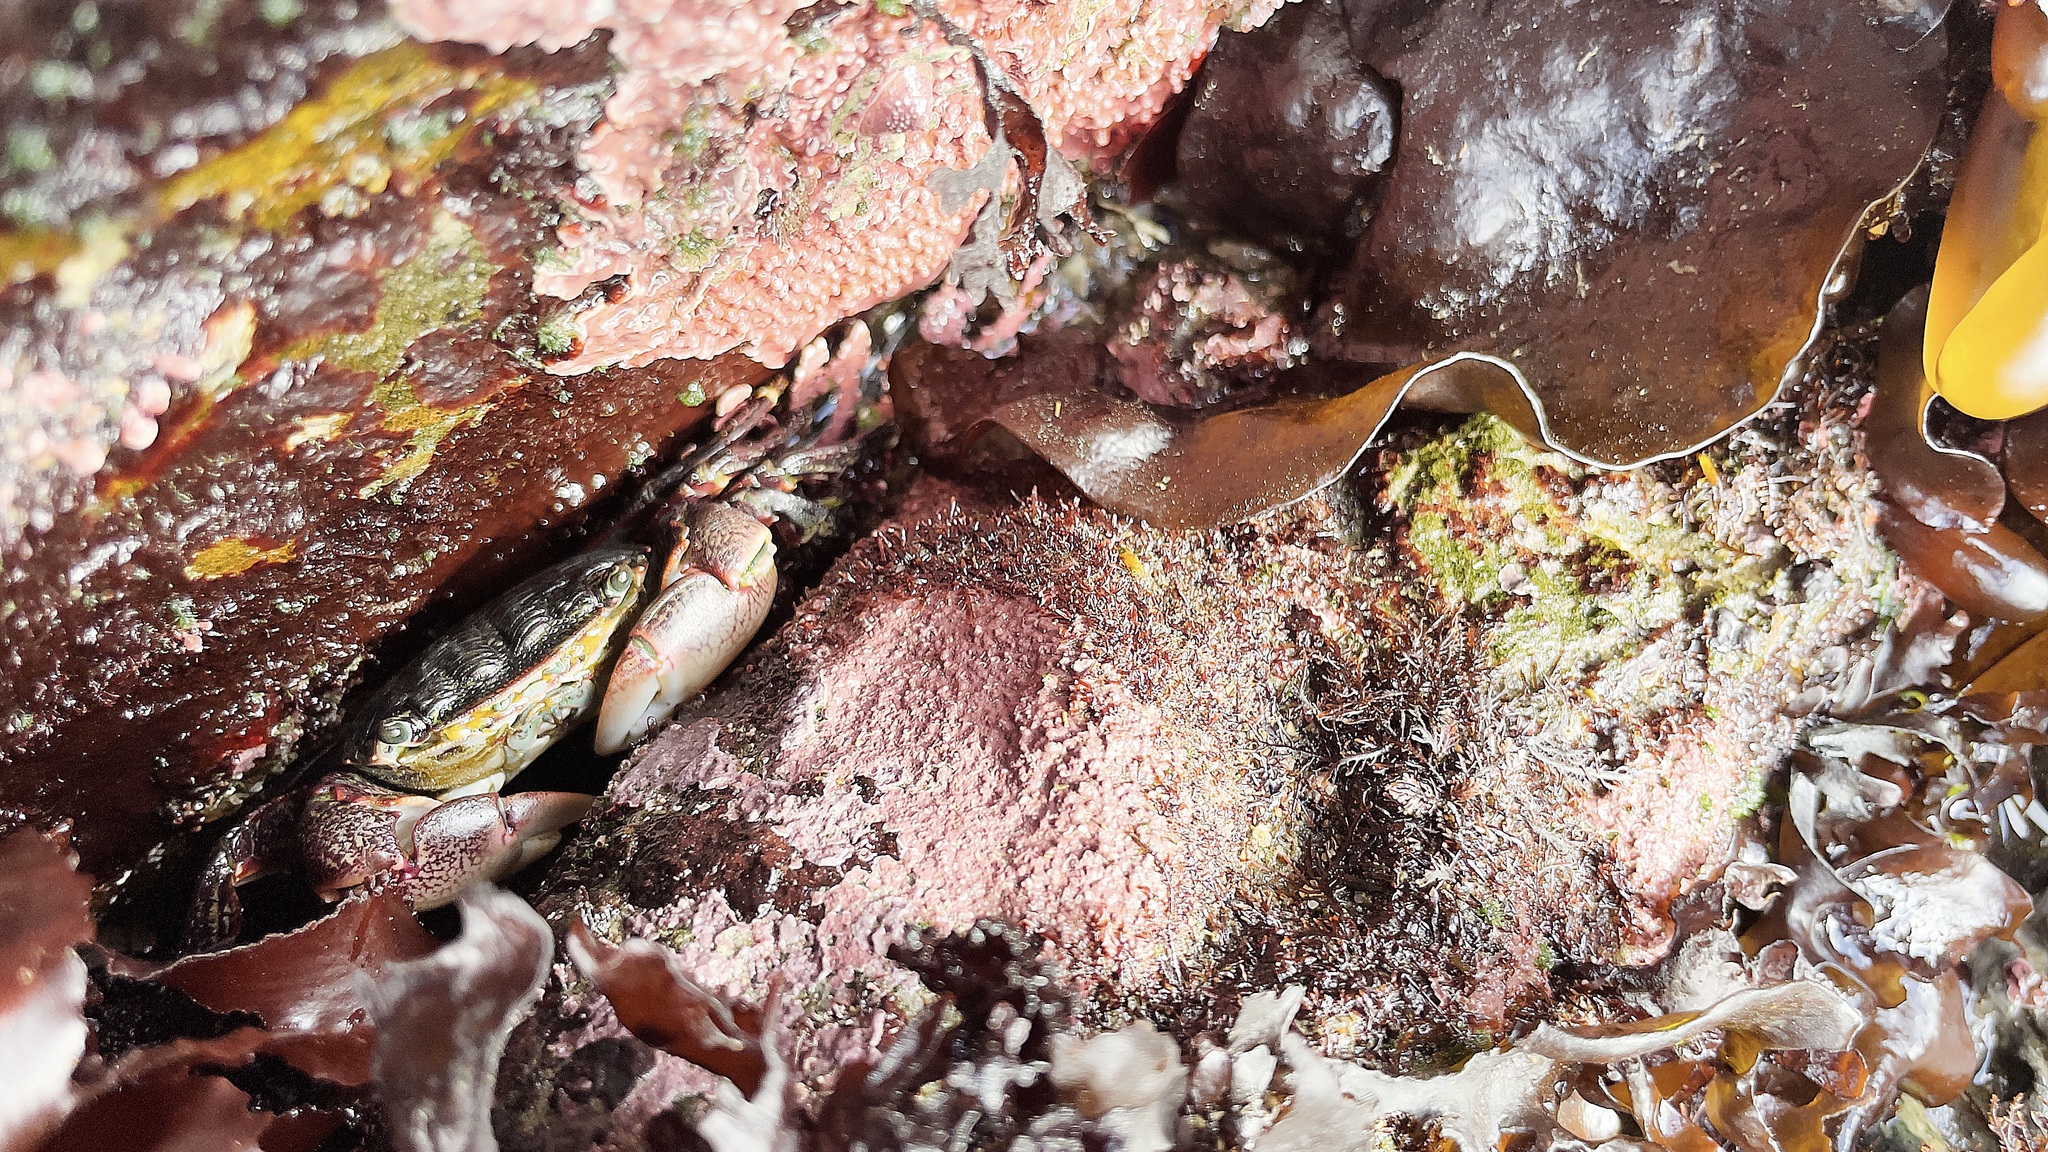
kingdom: Animalia
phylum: Arthropoda
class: Malacostraca
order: Decapoda
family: Grapsidae
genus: Pachygrapsus
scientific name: Pachygrapsus crassipes
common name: Striped shore crab
